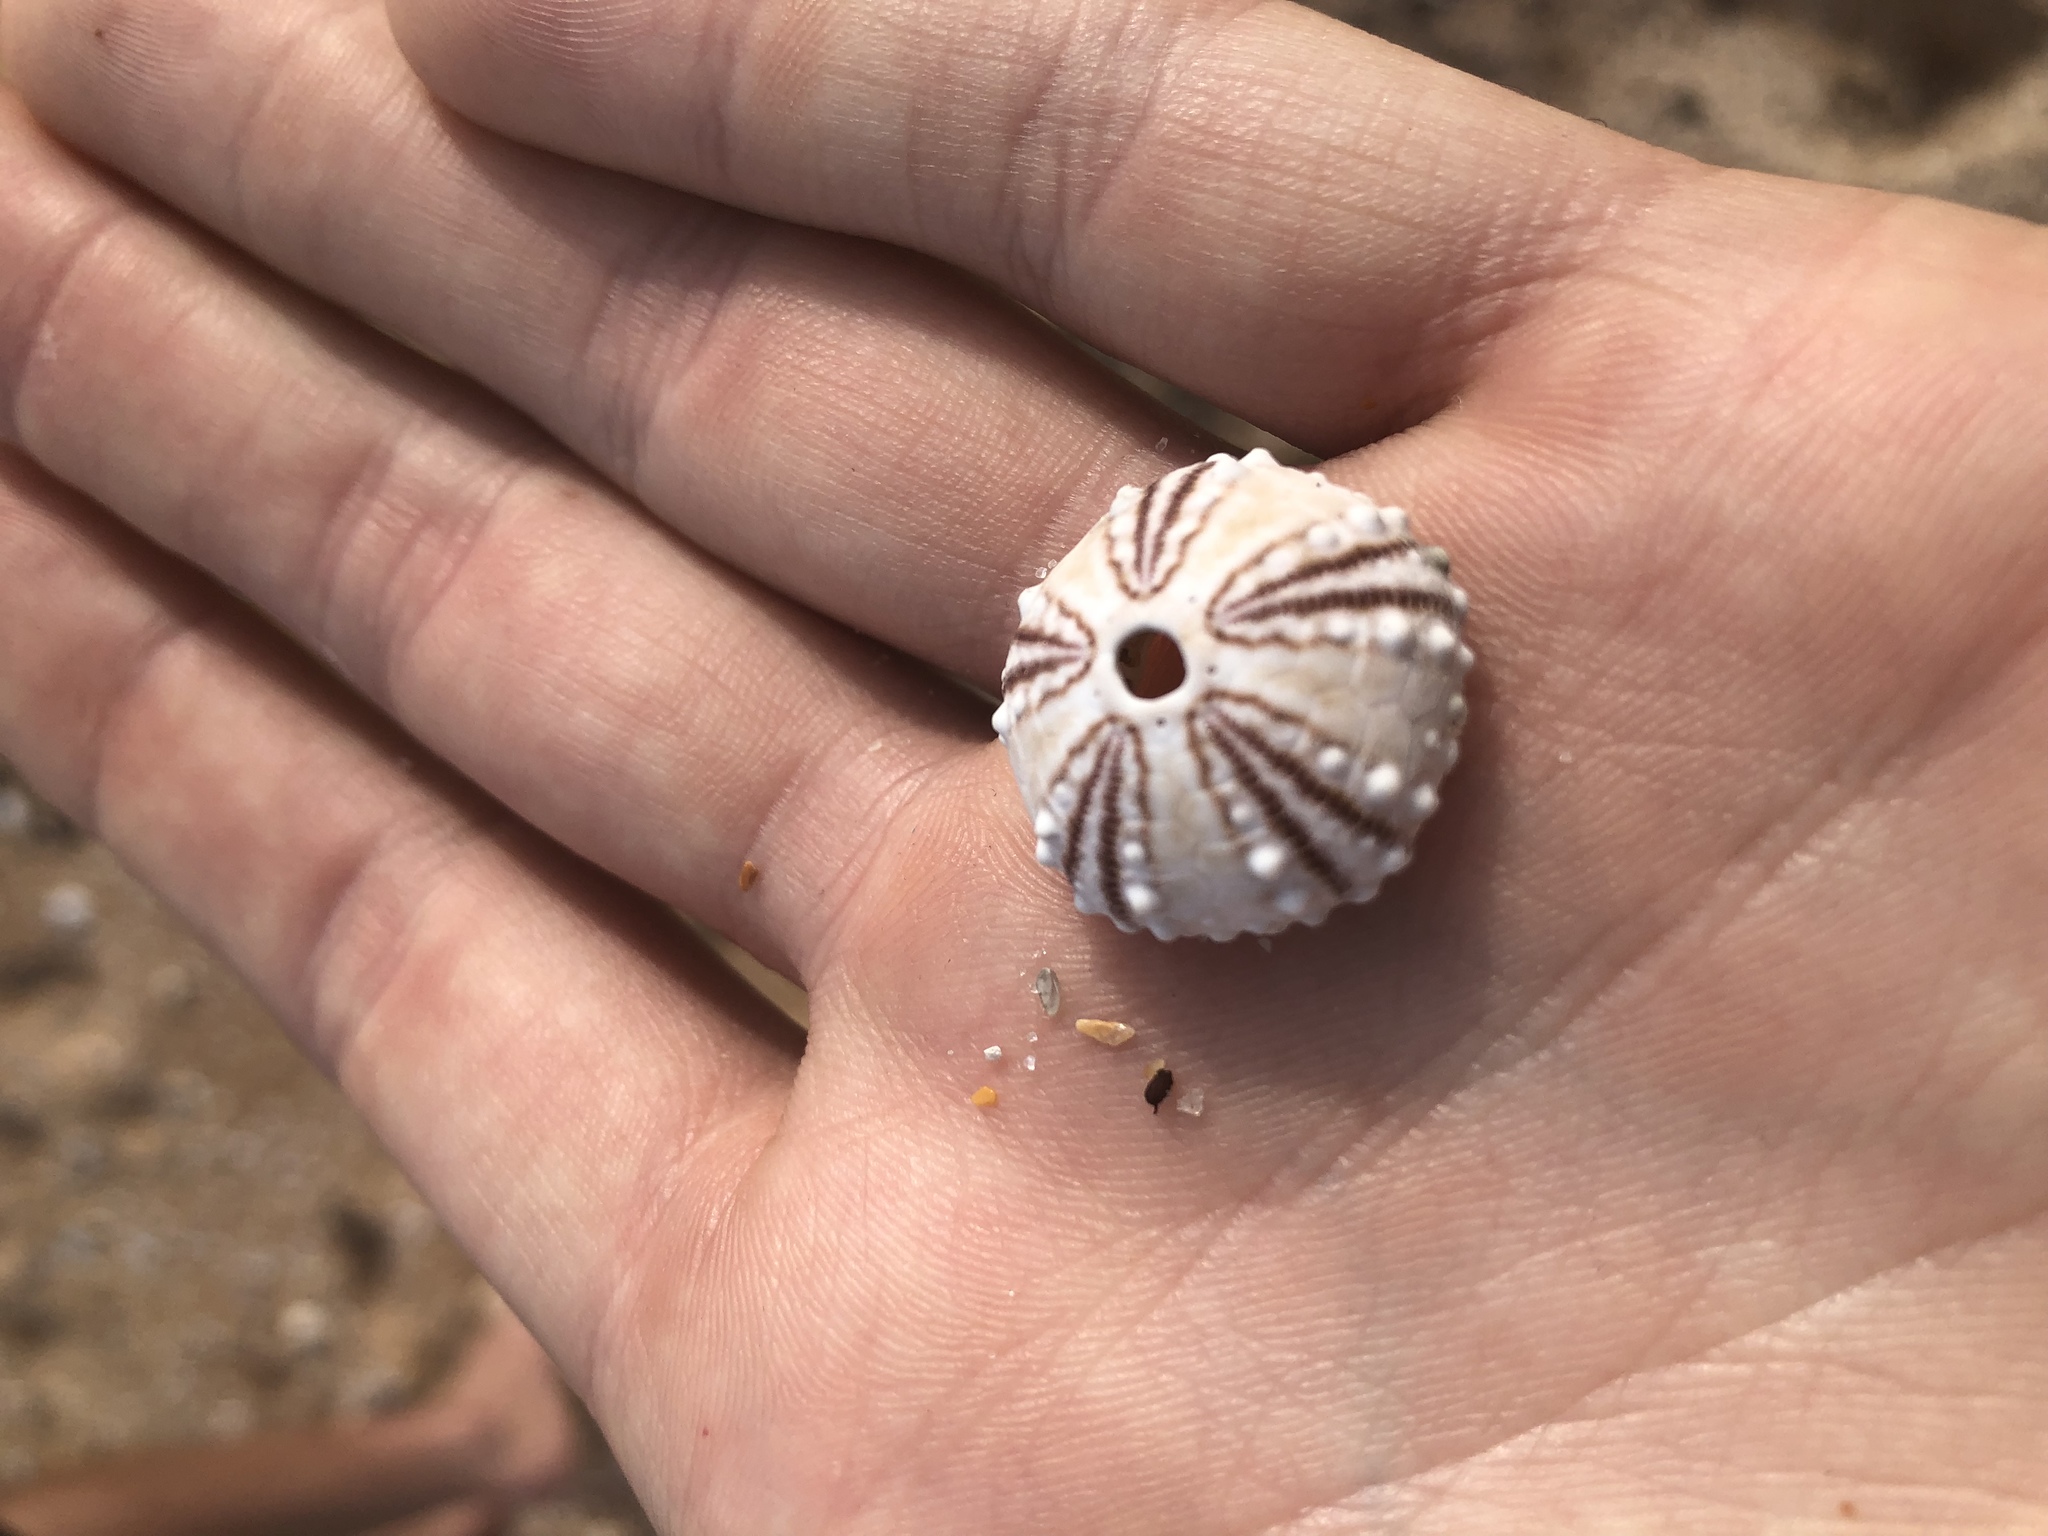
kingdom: Animalia
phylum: Echinodermata
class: Echinoidea
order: Arbacioida
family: Arbaciidae
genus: Arbacia
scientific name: Arbacia punctulata
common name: Purple-spined sea urchin
